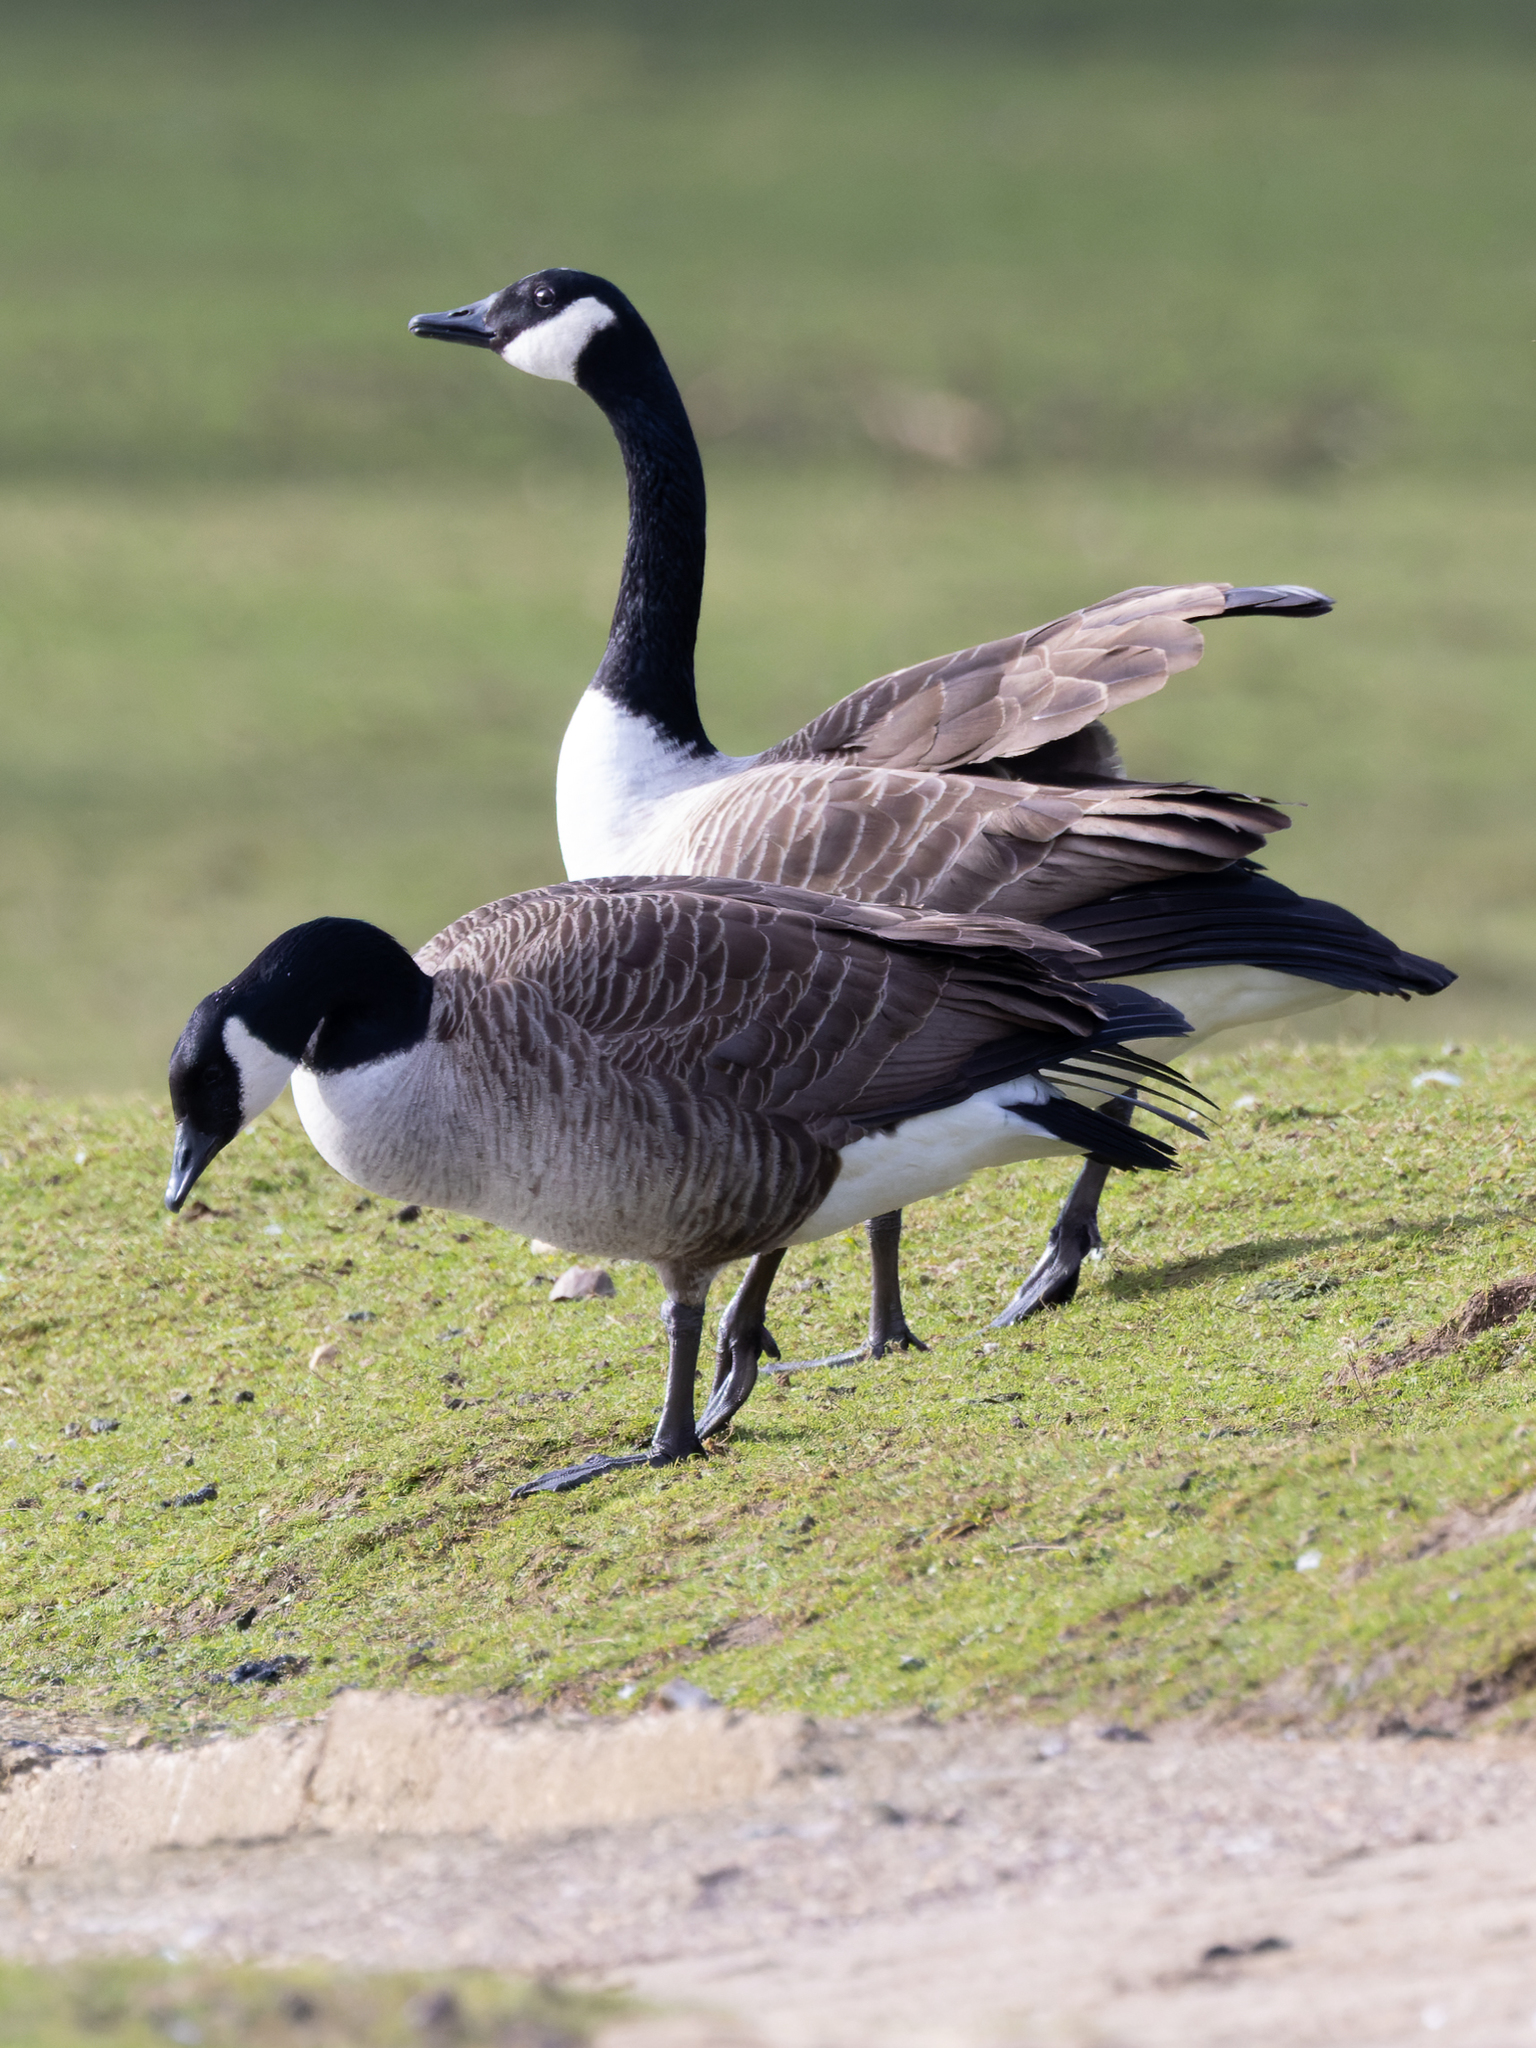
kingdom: Animalia
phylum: Chordata
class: Aves
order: Anseriformes
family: Anatidae
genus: Branta
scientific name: Branta canadensis
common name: Canada goose
